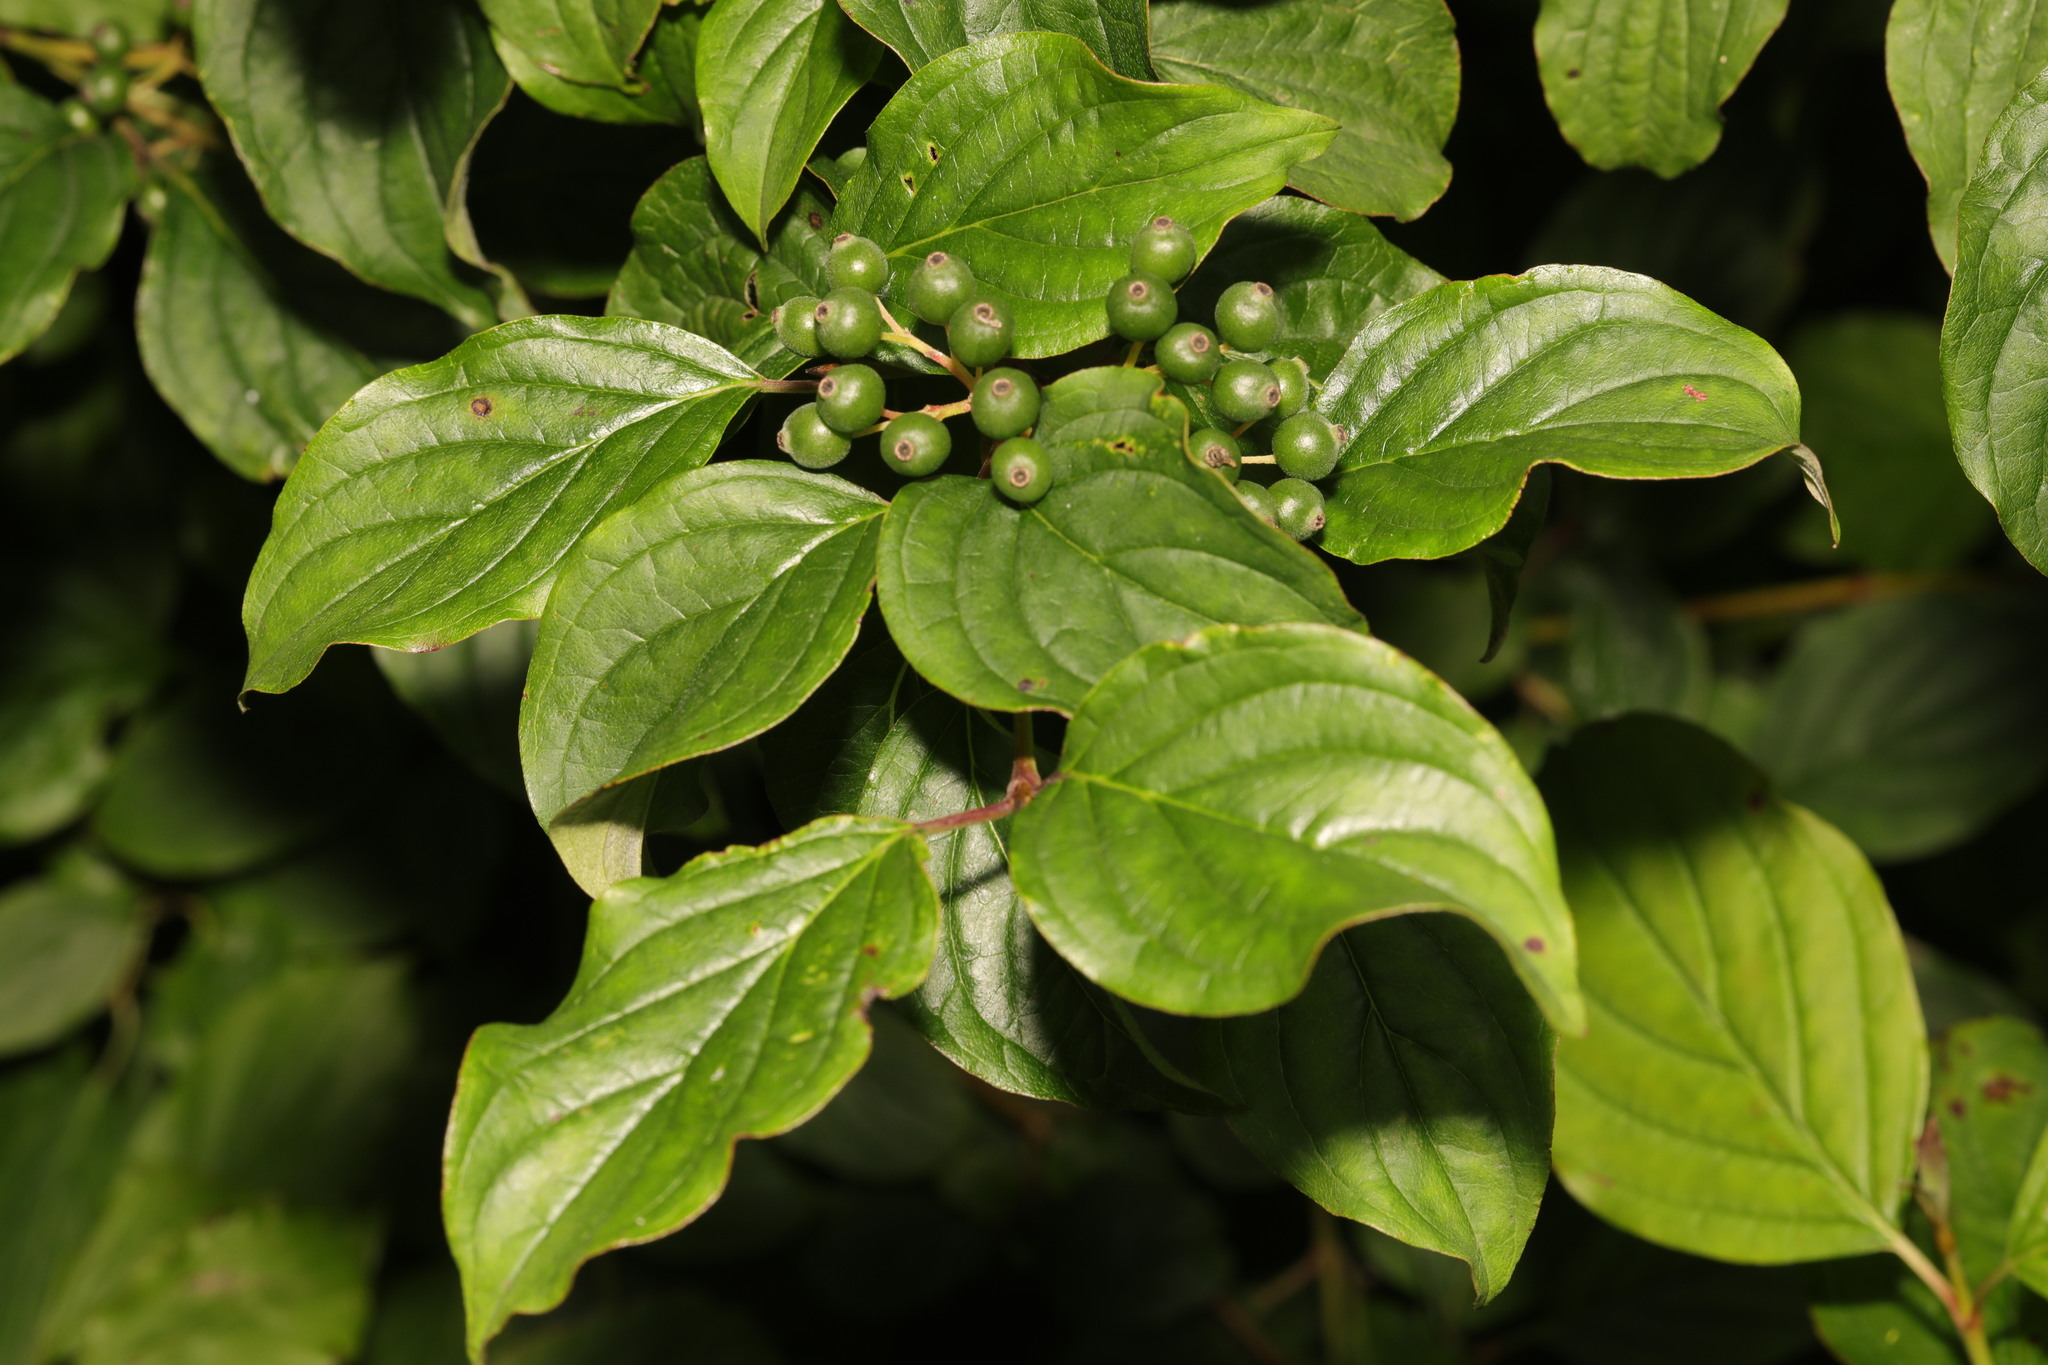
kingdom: Plantae
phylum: Tracheophyta
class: Magnoliopsida
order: Cornales
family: Cornaceae
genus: Cornus
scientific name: Cornus sanguinea
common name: Dogwood
